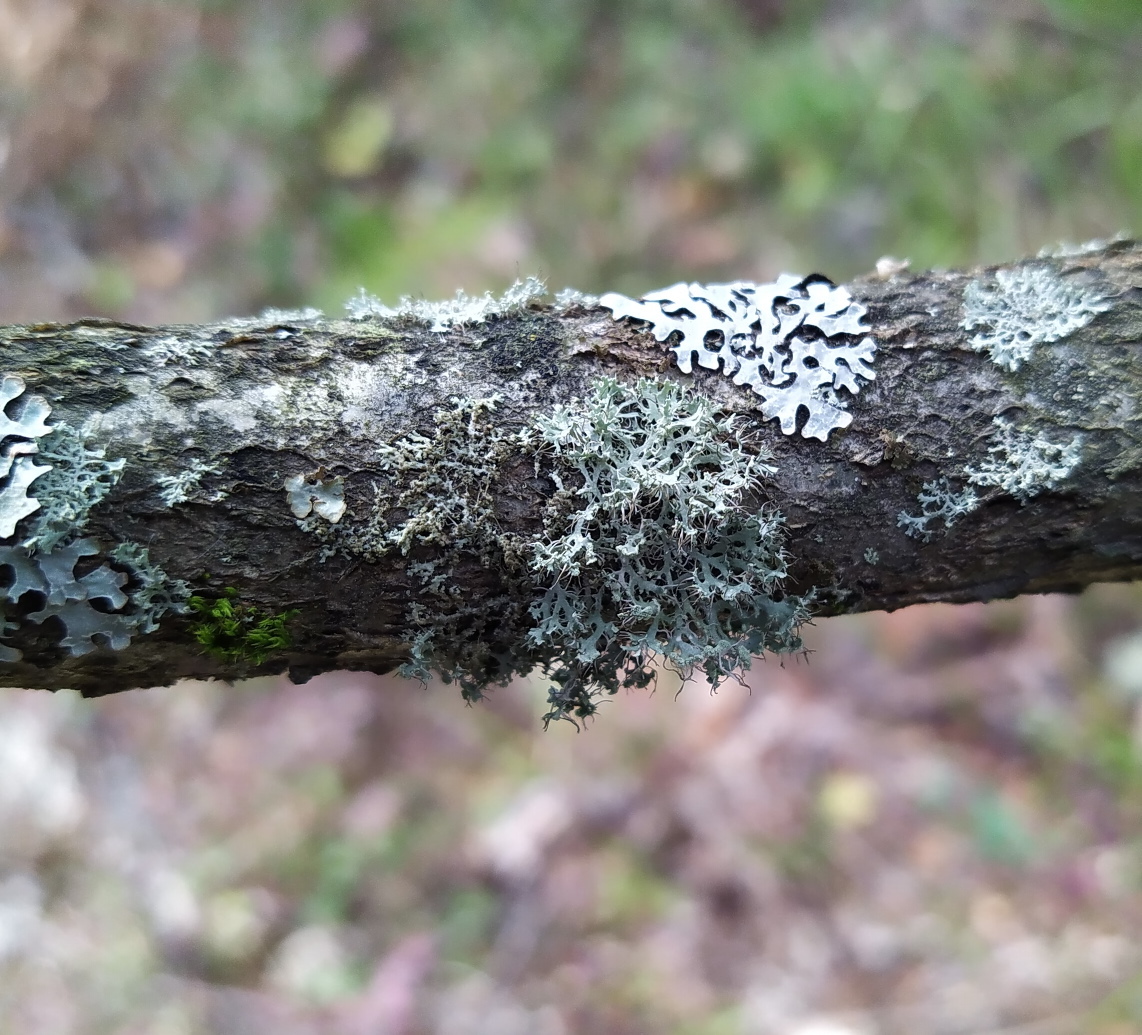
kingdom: Fungi
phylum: Ascomycota
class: Lecanoromycetes
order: Caliciales
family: Physciaceae
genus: Physcia
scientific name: Physcia tenella
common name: Fringed rosette lichen
